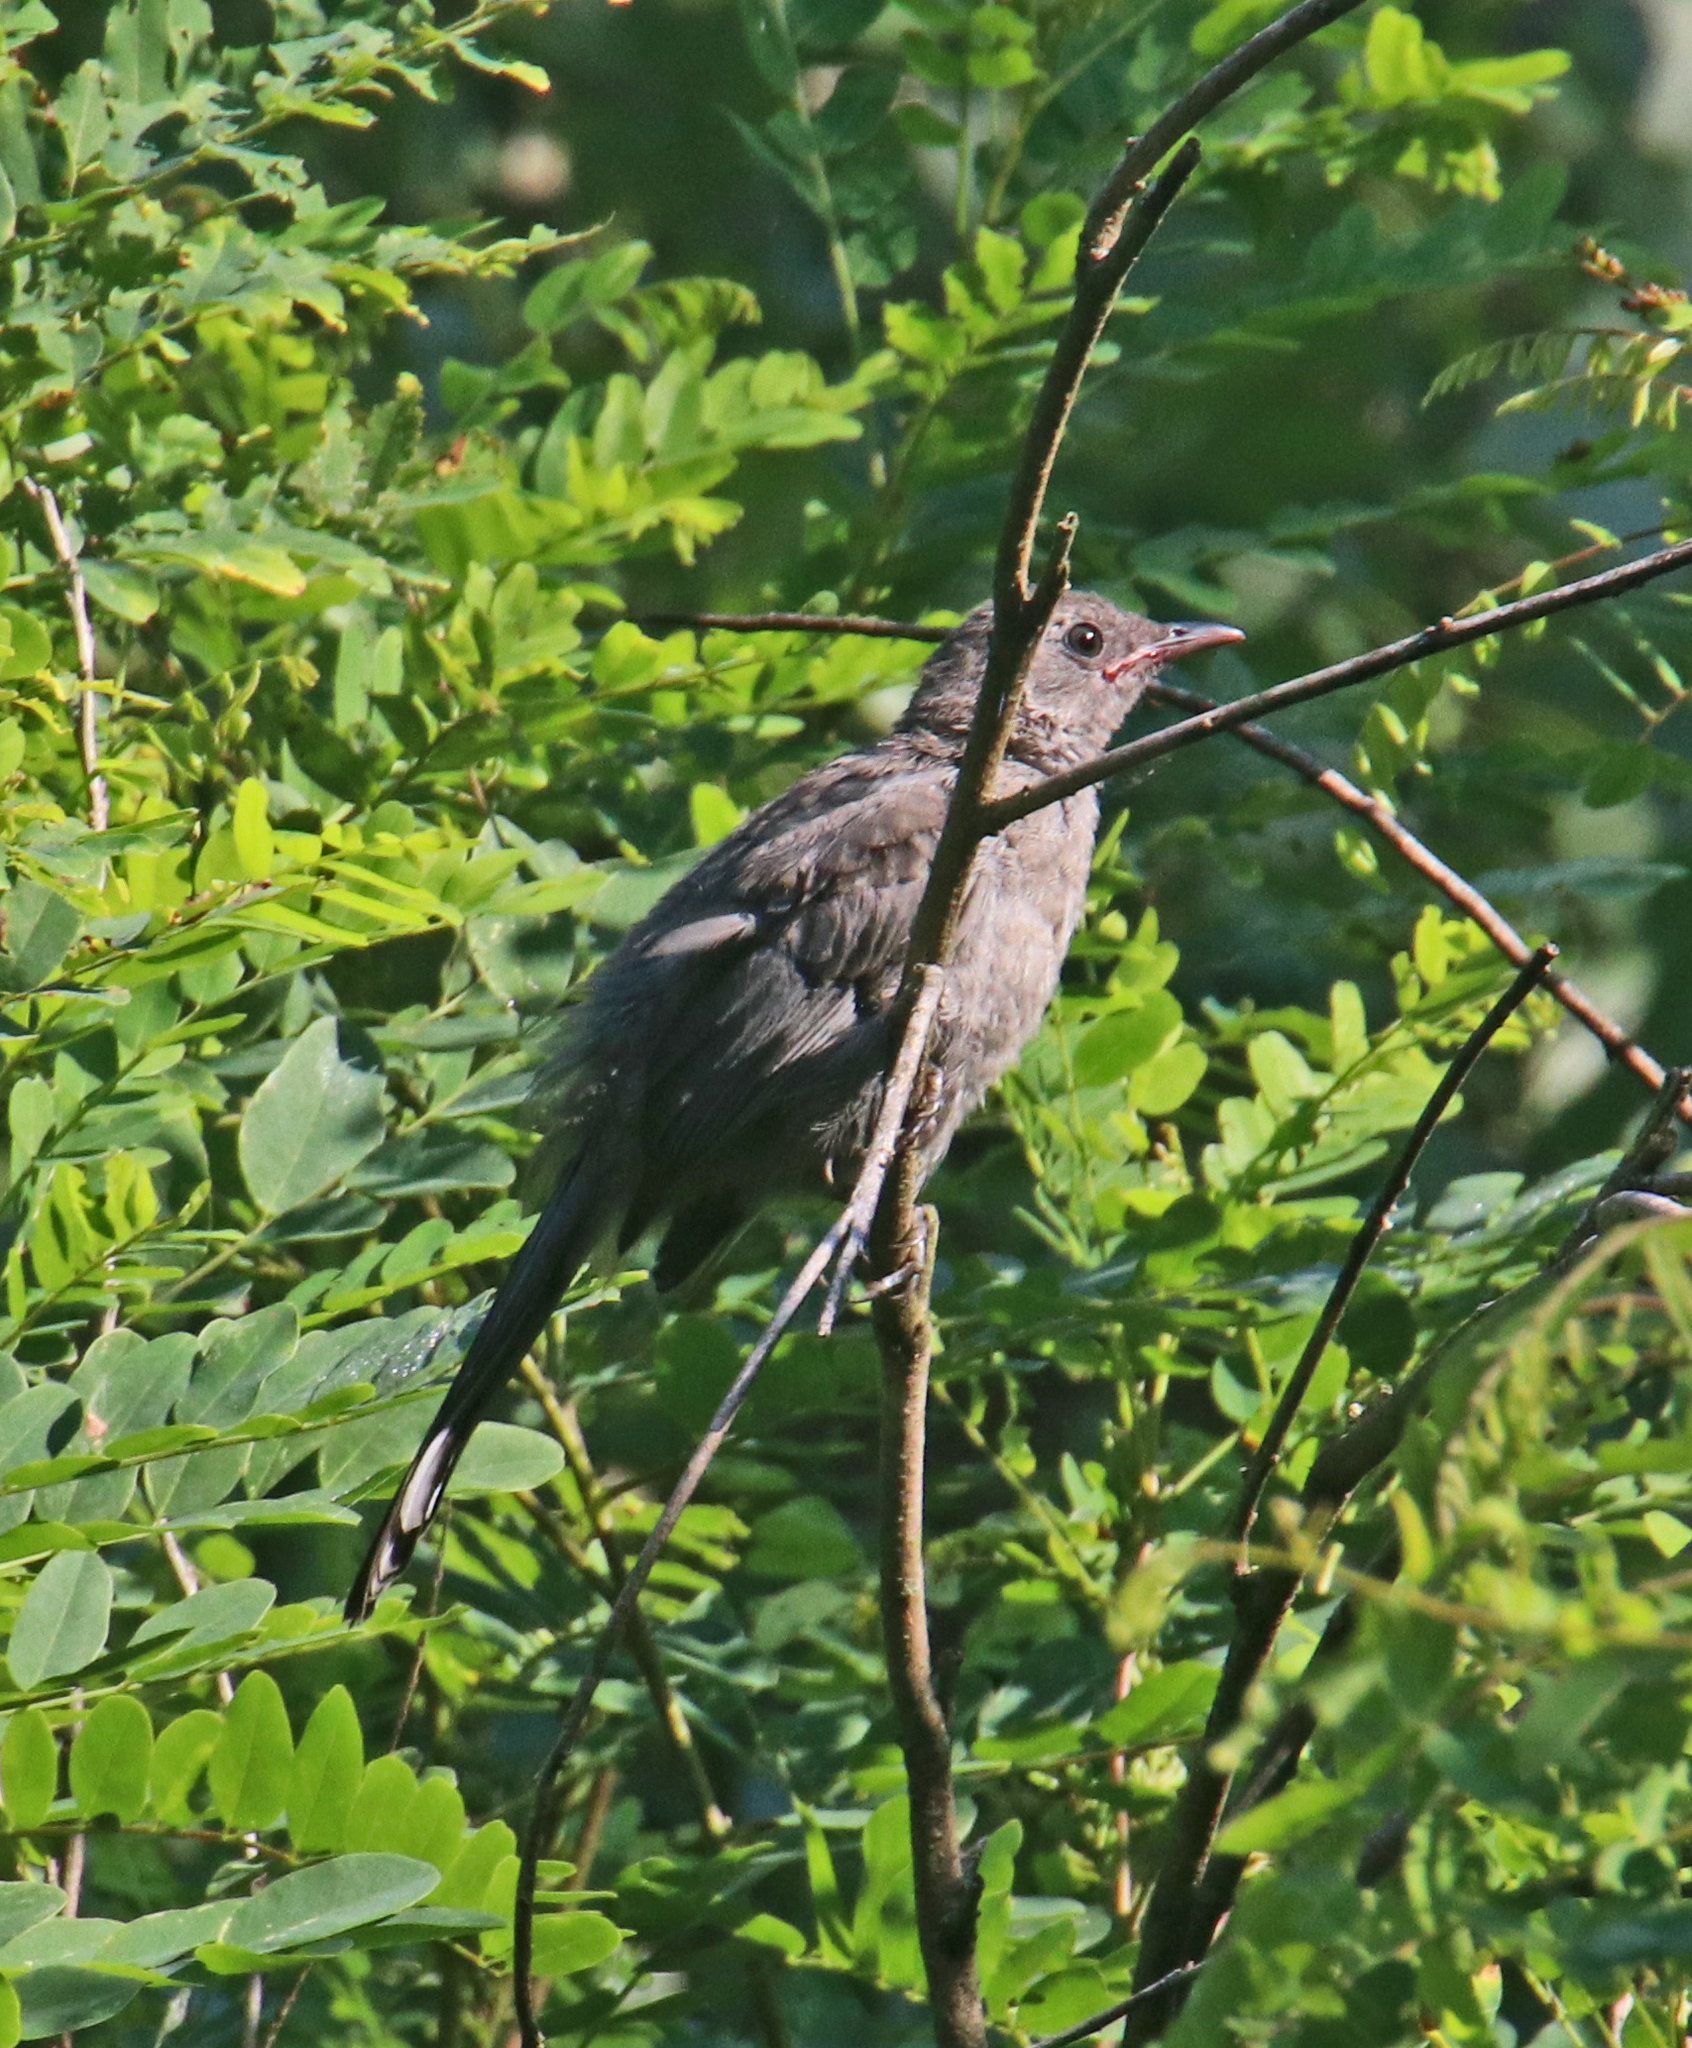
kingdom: Animalia
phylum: Chordata
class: Aves
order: Passeriformes
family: Mimidae
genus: Dumetella
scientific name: Dumetella carolinensis
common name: Gray catbird
